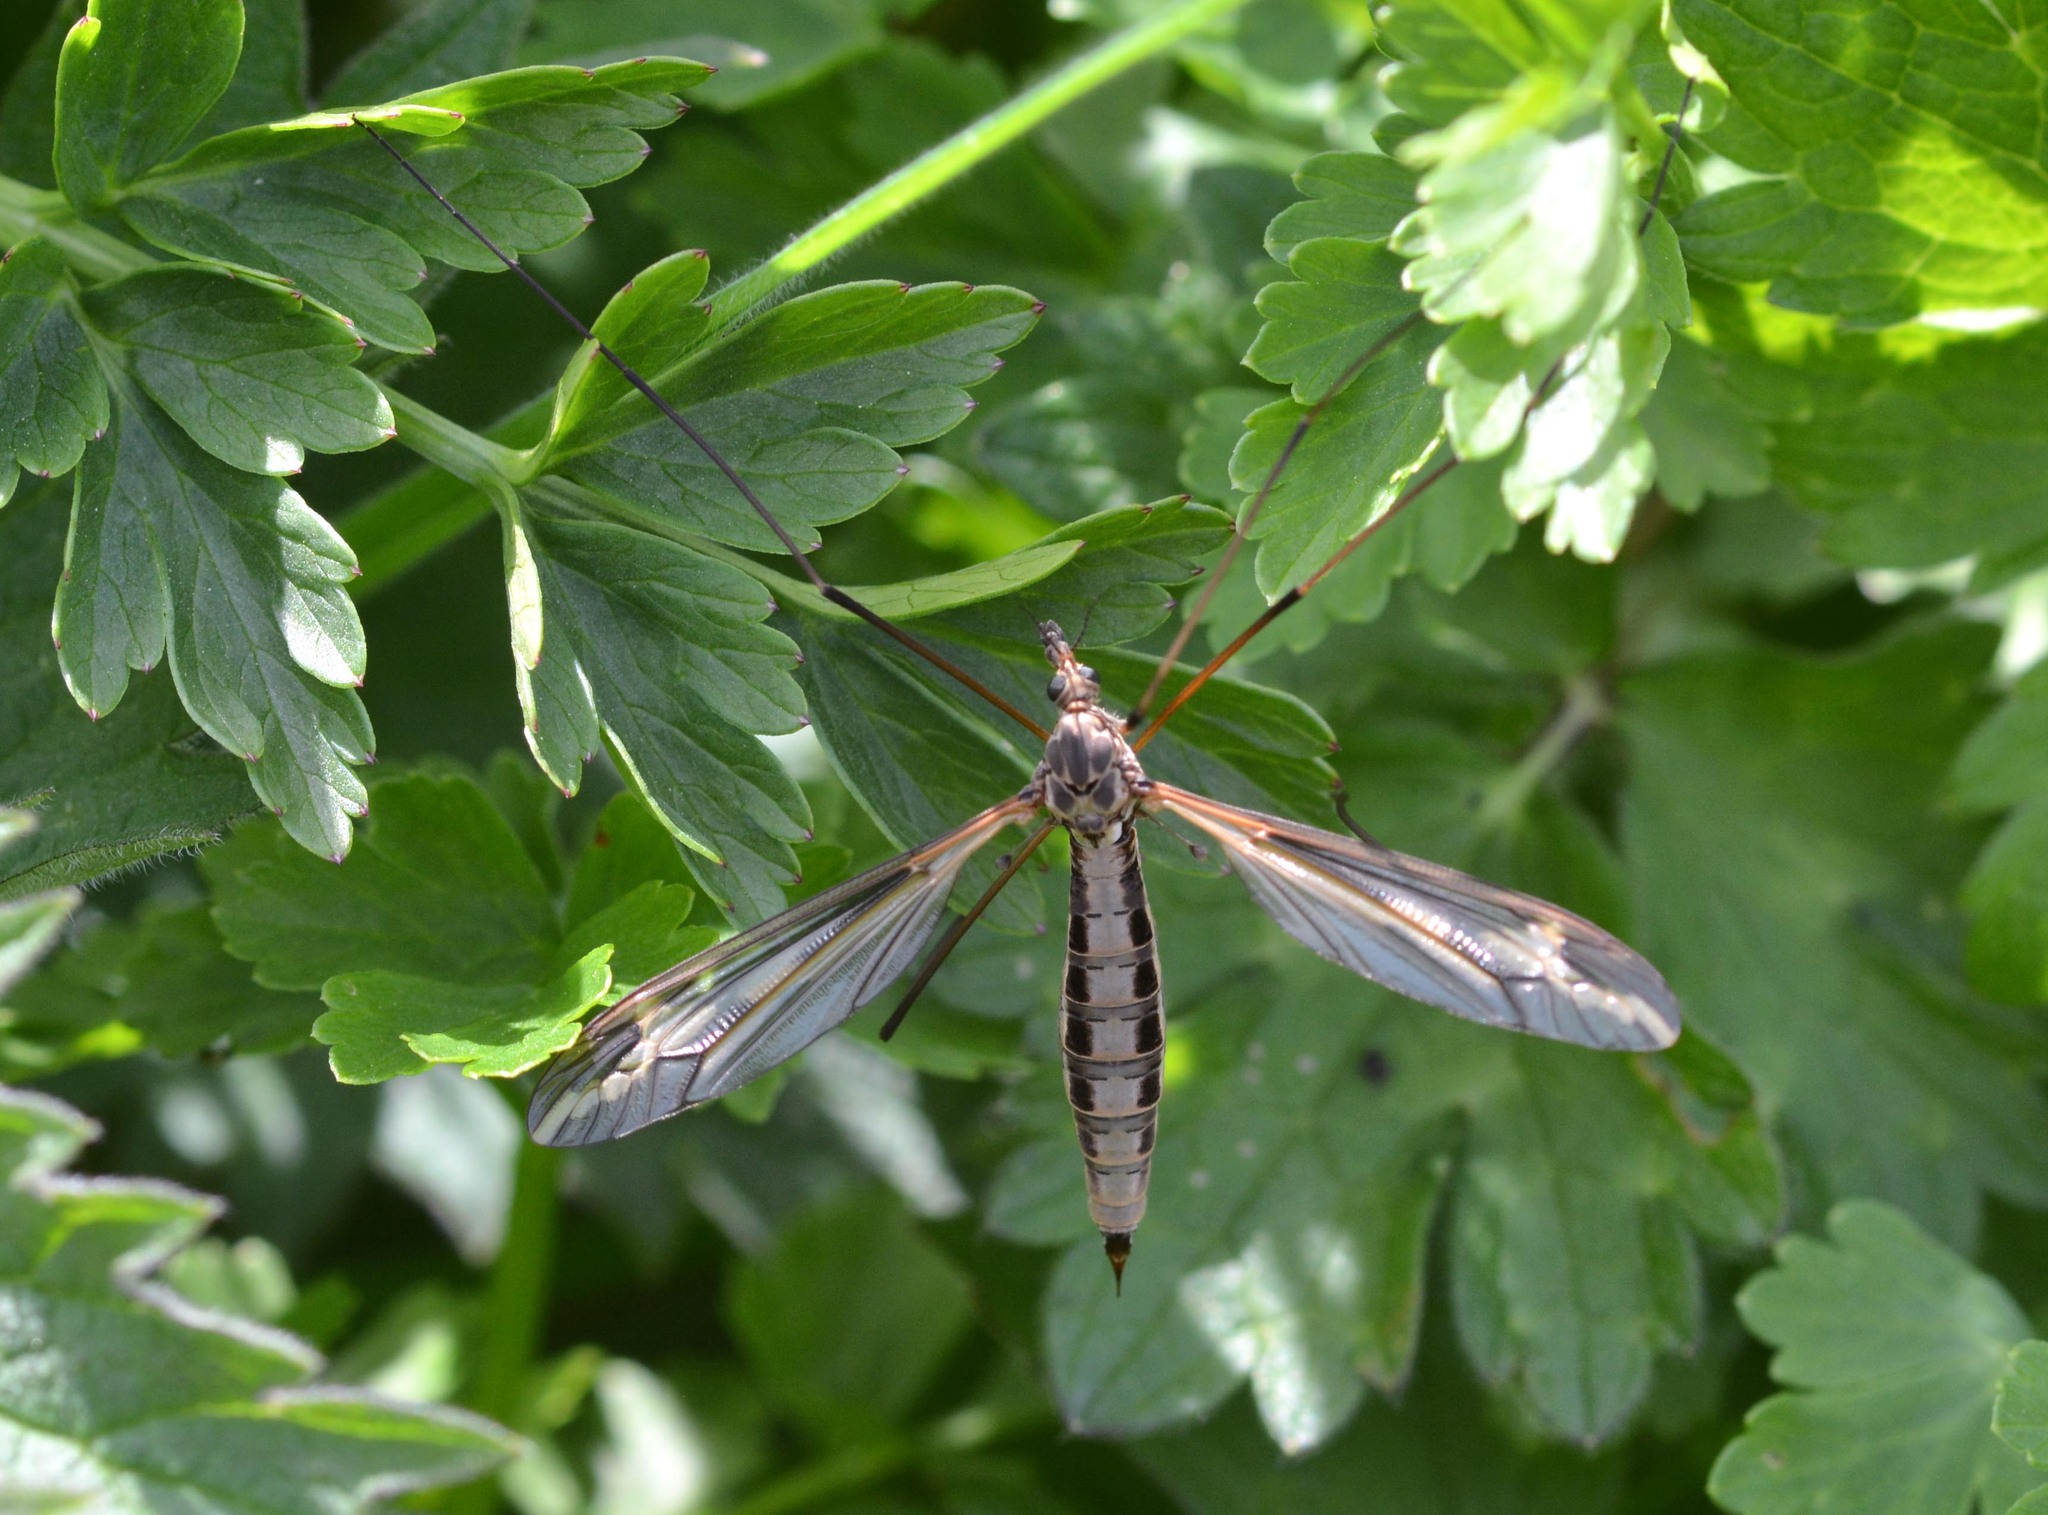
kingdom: Animalia
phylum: Arthropoda
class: Insecta
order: Diptera
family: Tipulidae
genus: Tipula
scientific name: Tipula vittata
